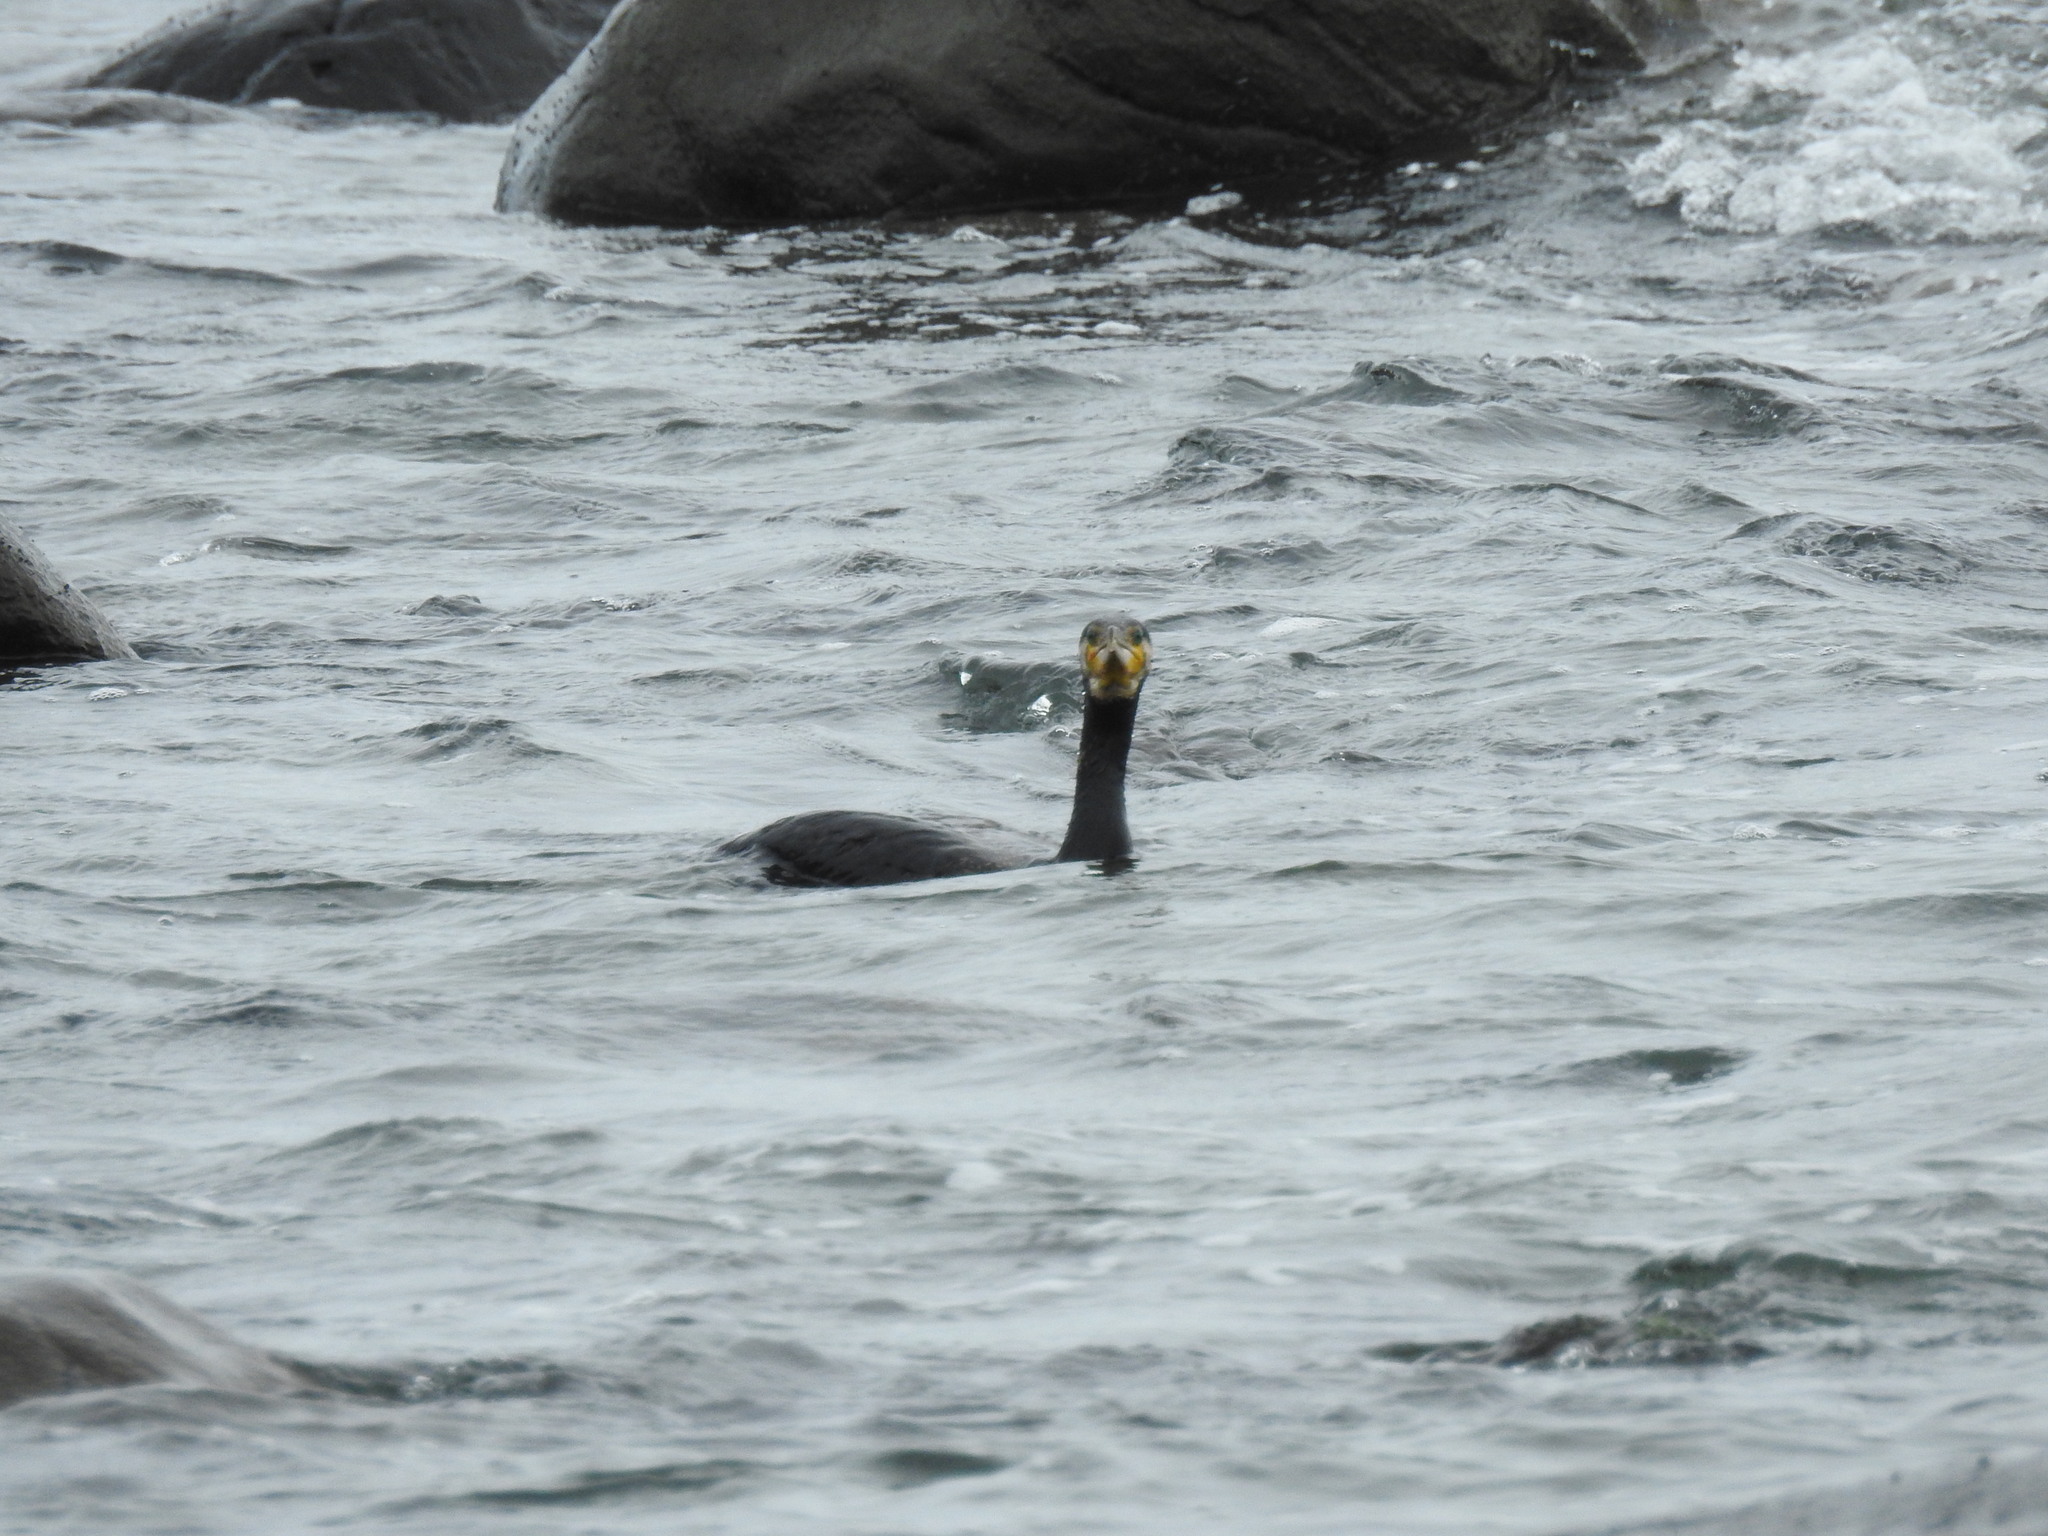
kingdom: Animalia
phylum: Chordata
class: Aves
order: Suliformes
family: Phalacrocoracidae
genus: Phalacrocorax
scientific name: Phalacrocorax carbo
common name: Great cormorant
